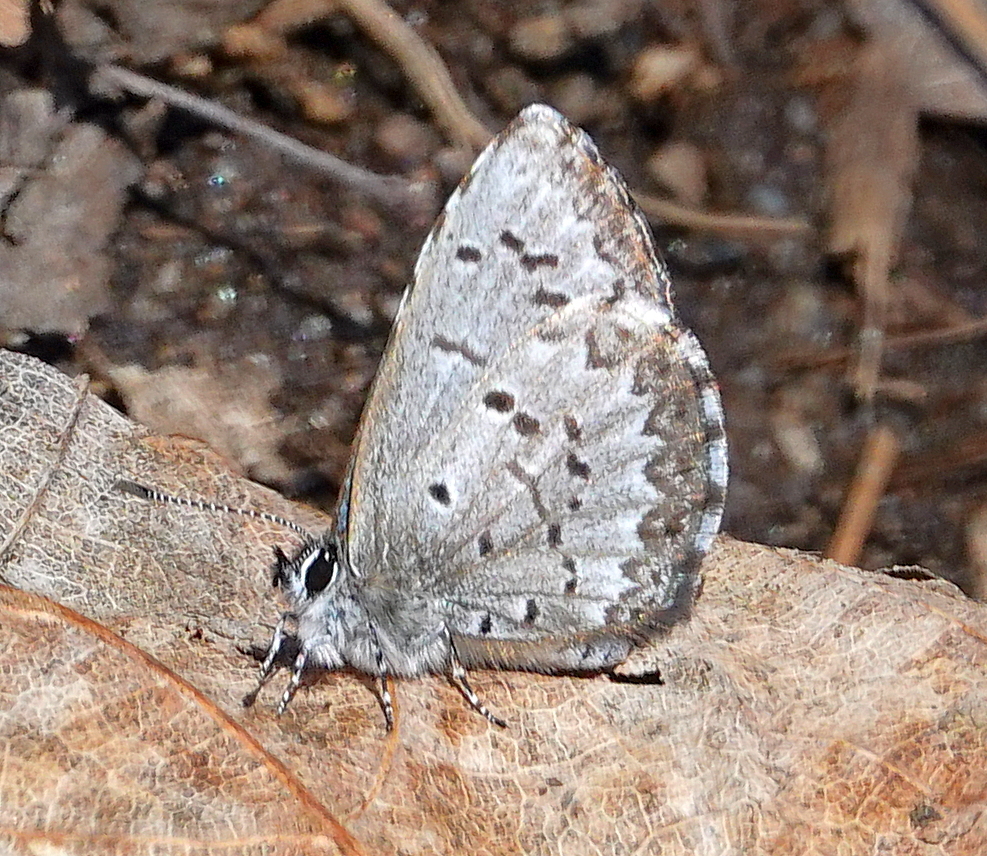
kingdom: Animalia
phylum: Arthropoda
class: Insecta
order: Lepidoptera
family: Lycaenidae
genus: Celastrina
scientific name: Celastrina lucia
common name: Lucia azure
